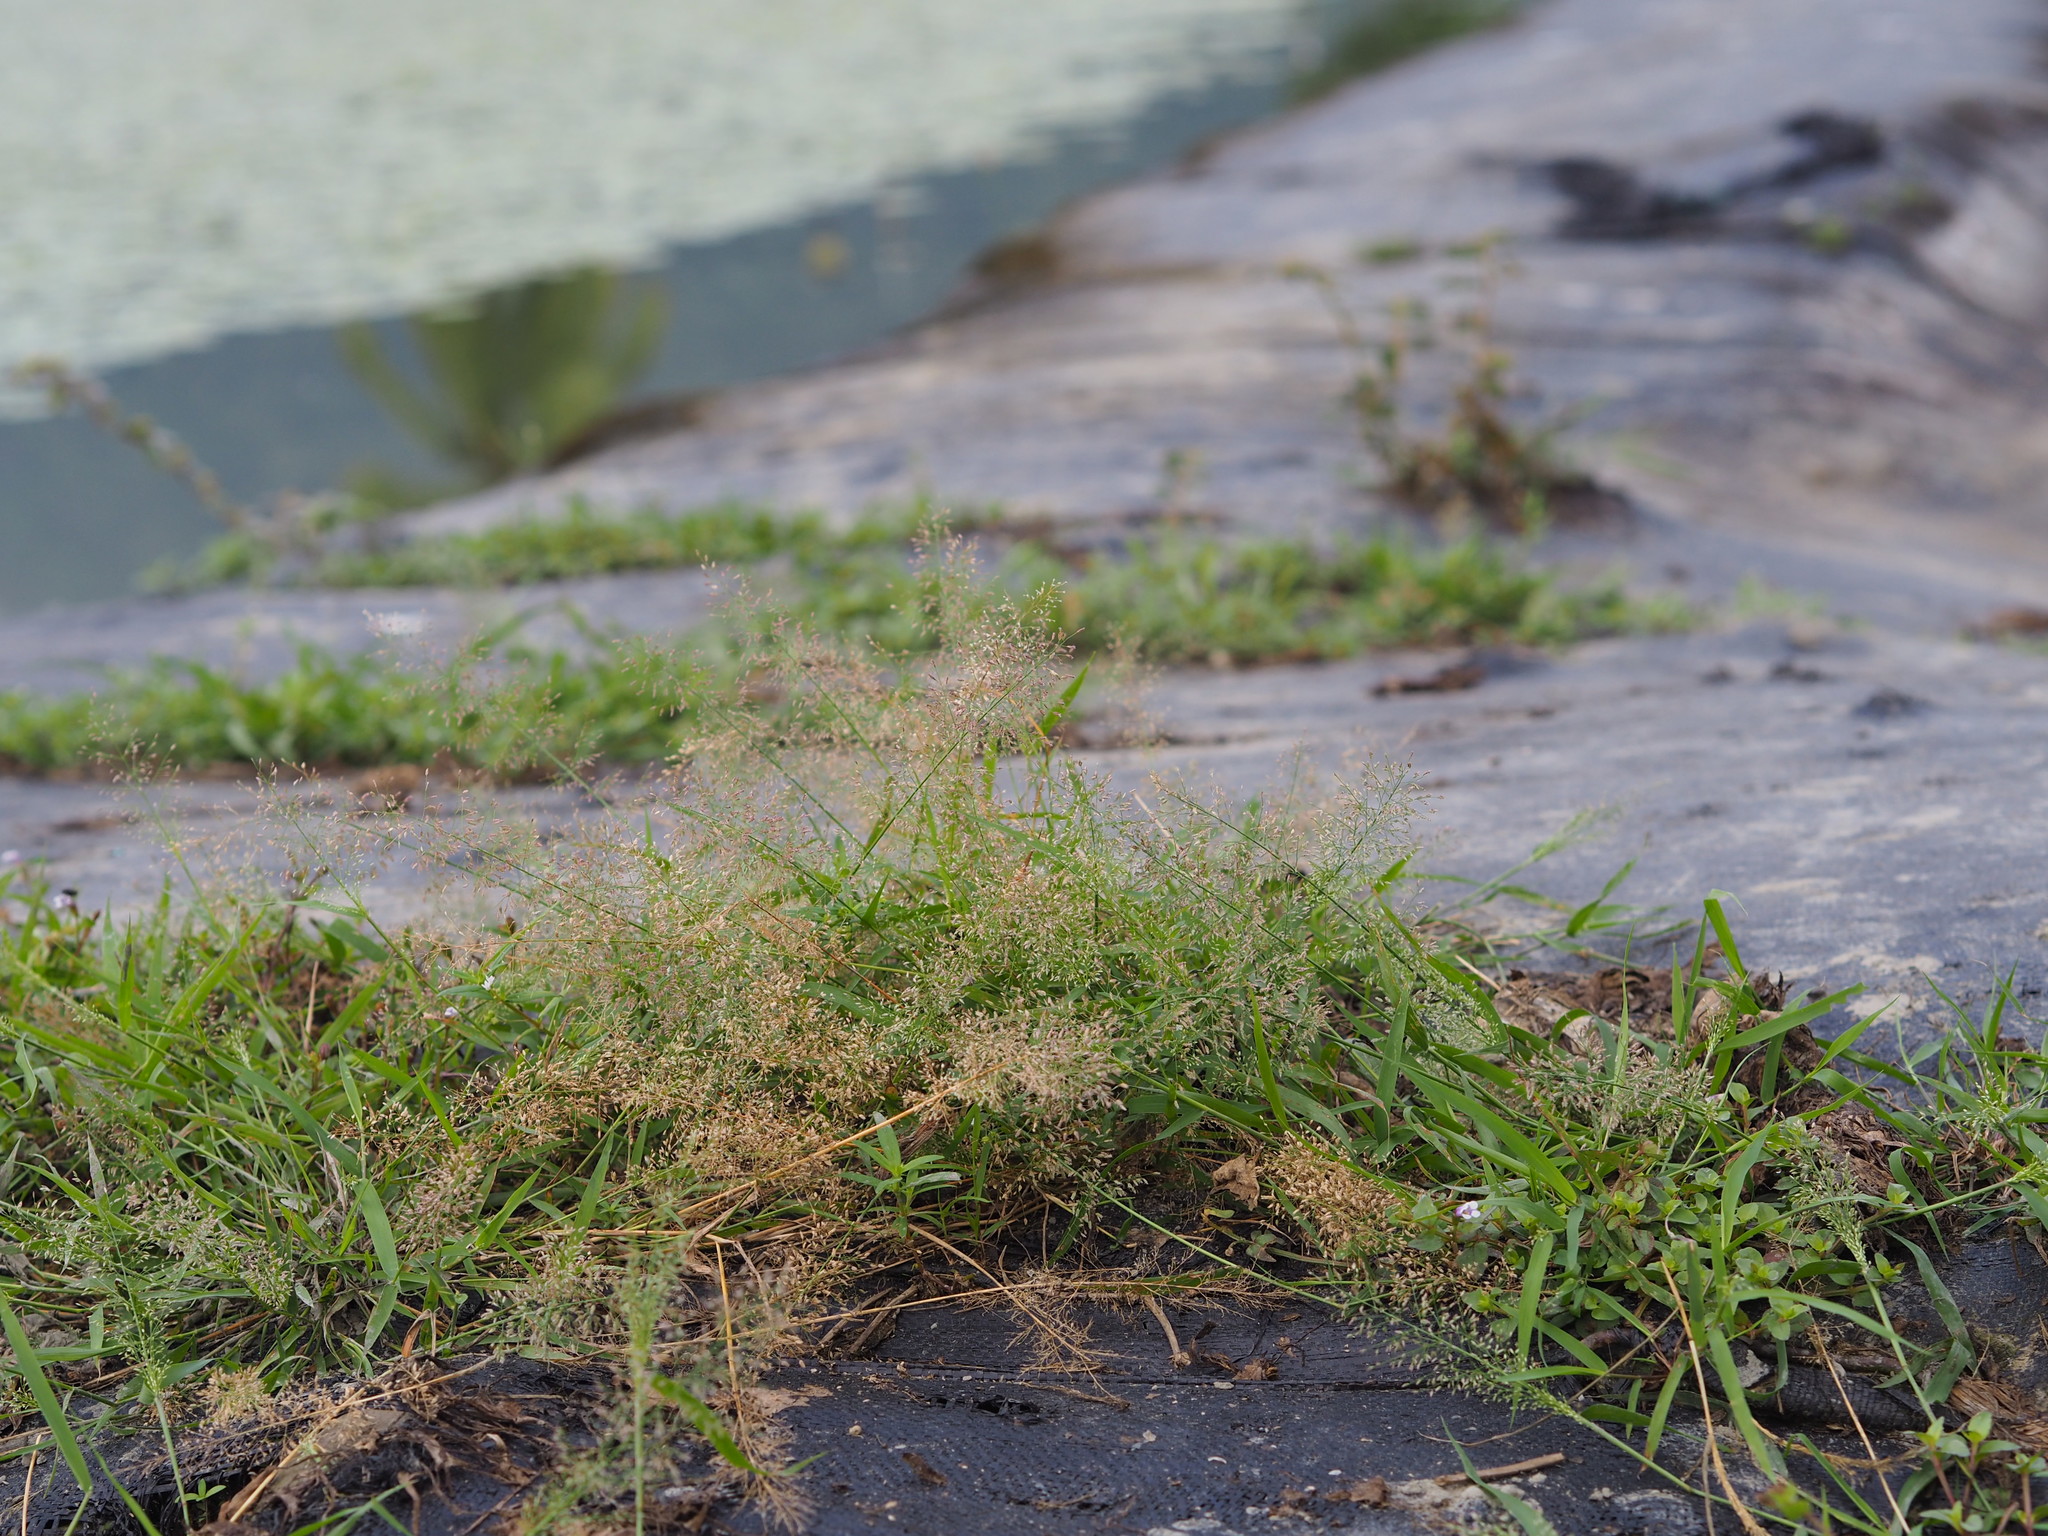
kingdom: Plantae
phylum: Tracheophyta
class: Liliopsida
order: Poales
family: Poaceae
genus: Eragrostis
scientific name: Eragrostis tenella
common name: Japanese lovegrass
